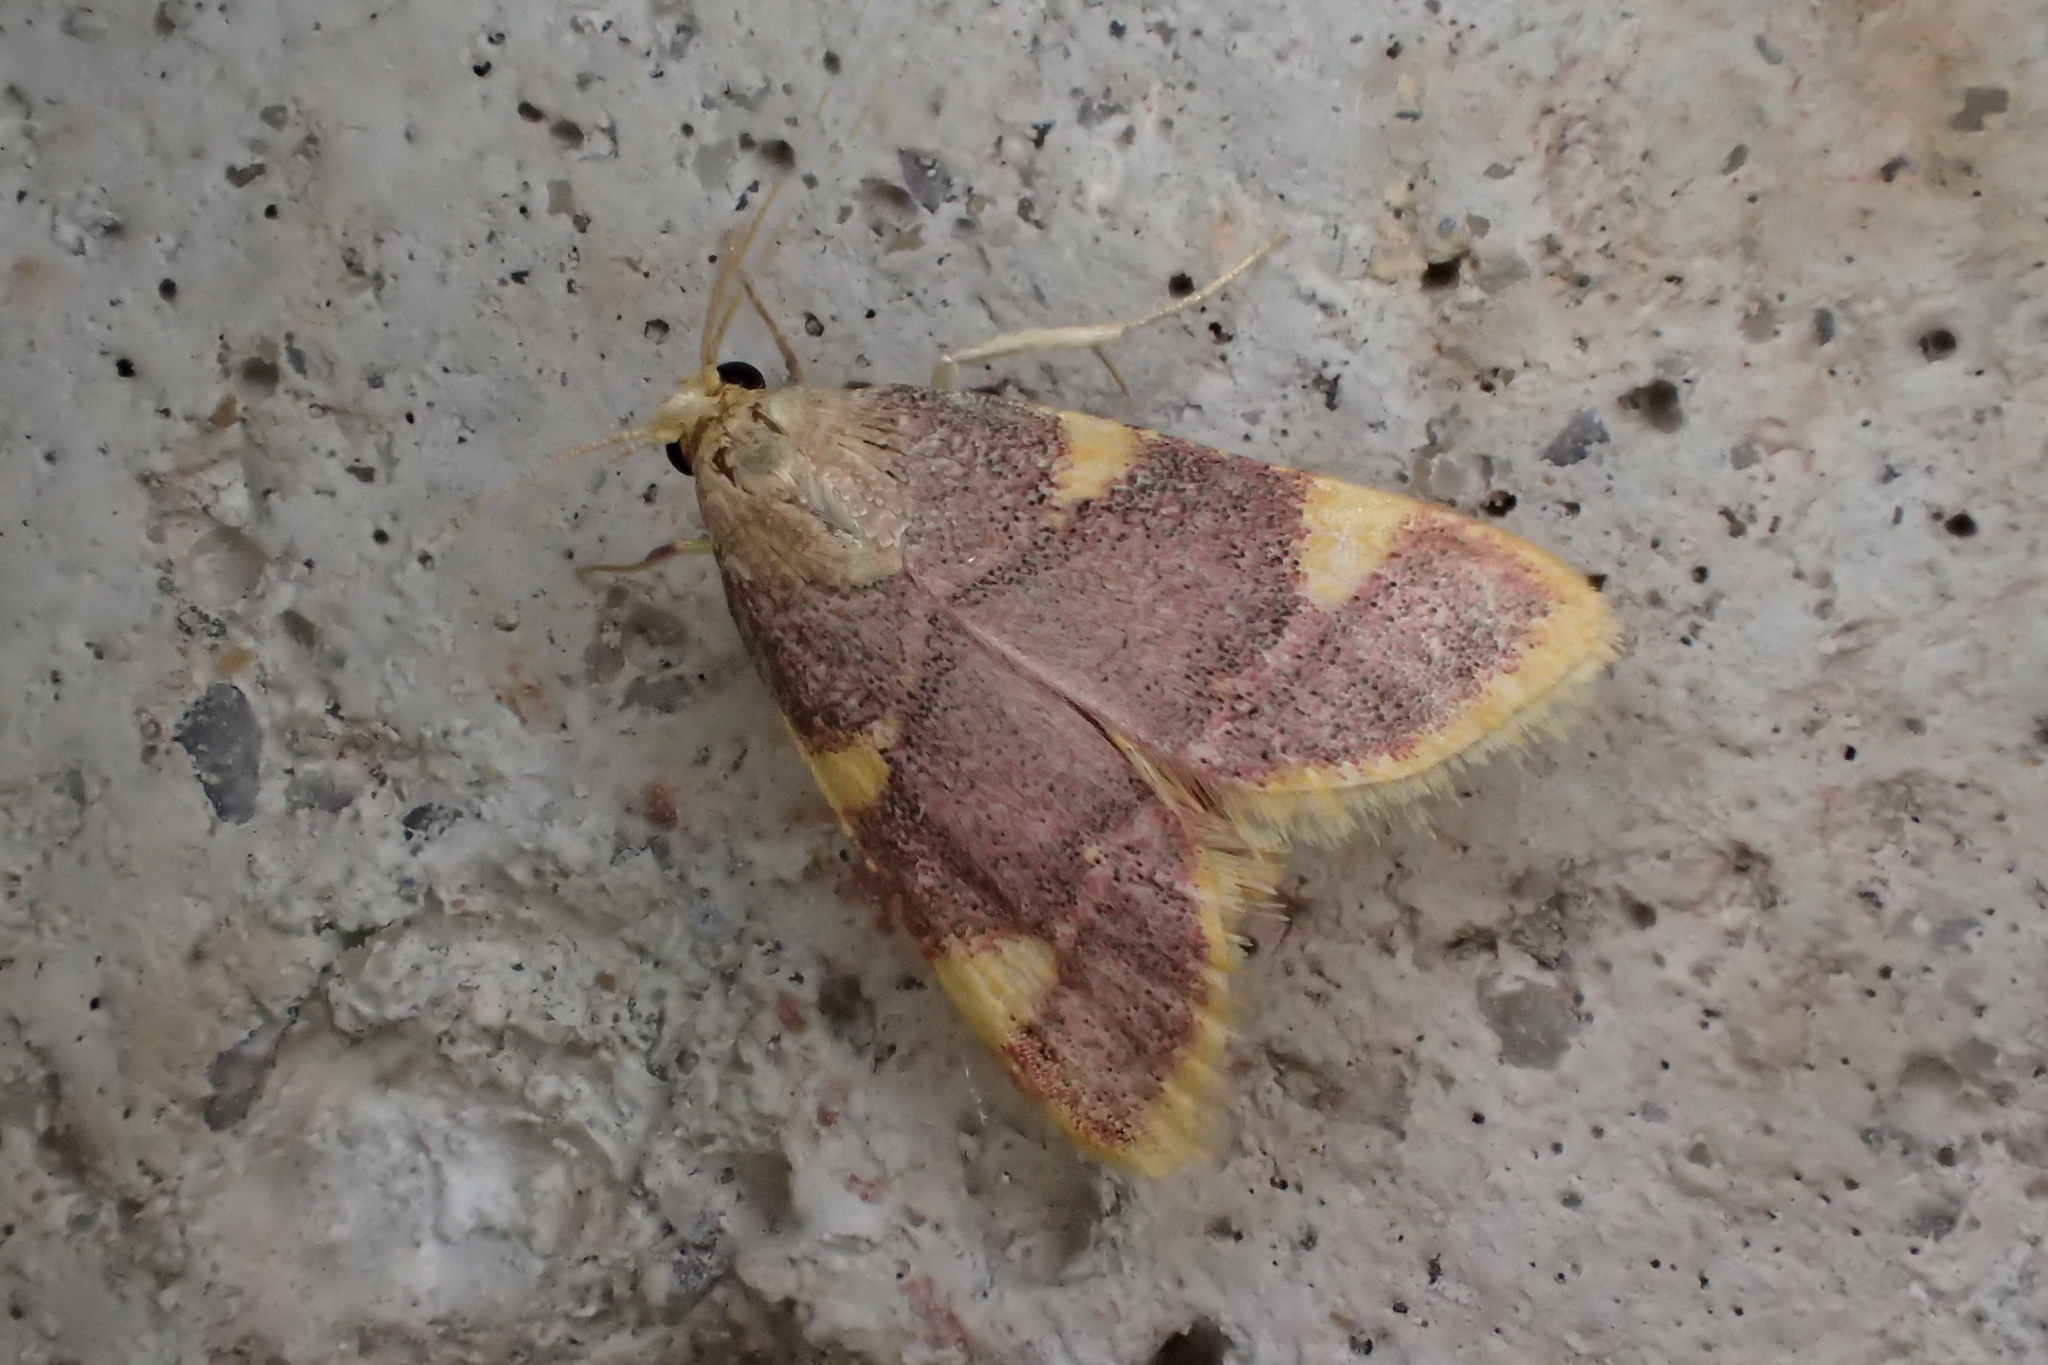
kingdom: Animalia
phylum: Arthropoda
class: Insecta
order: Lepidoptera
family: Pyralidae
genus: Hypsopygia
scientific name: Hypsopygia costalis
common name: Gold triangle
